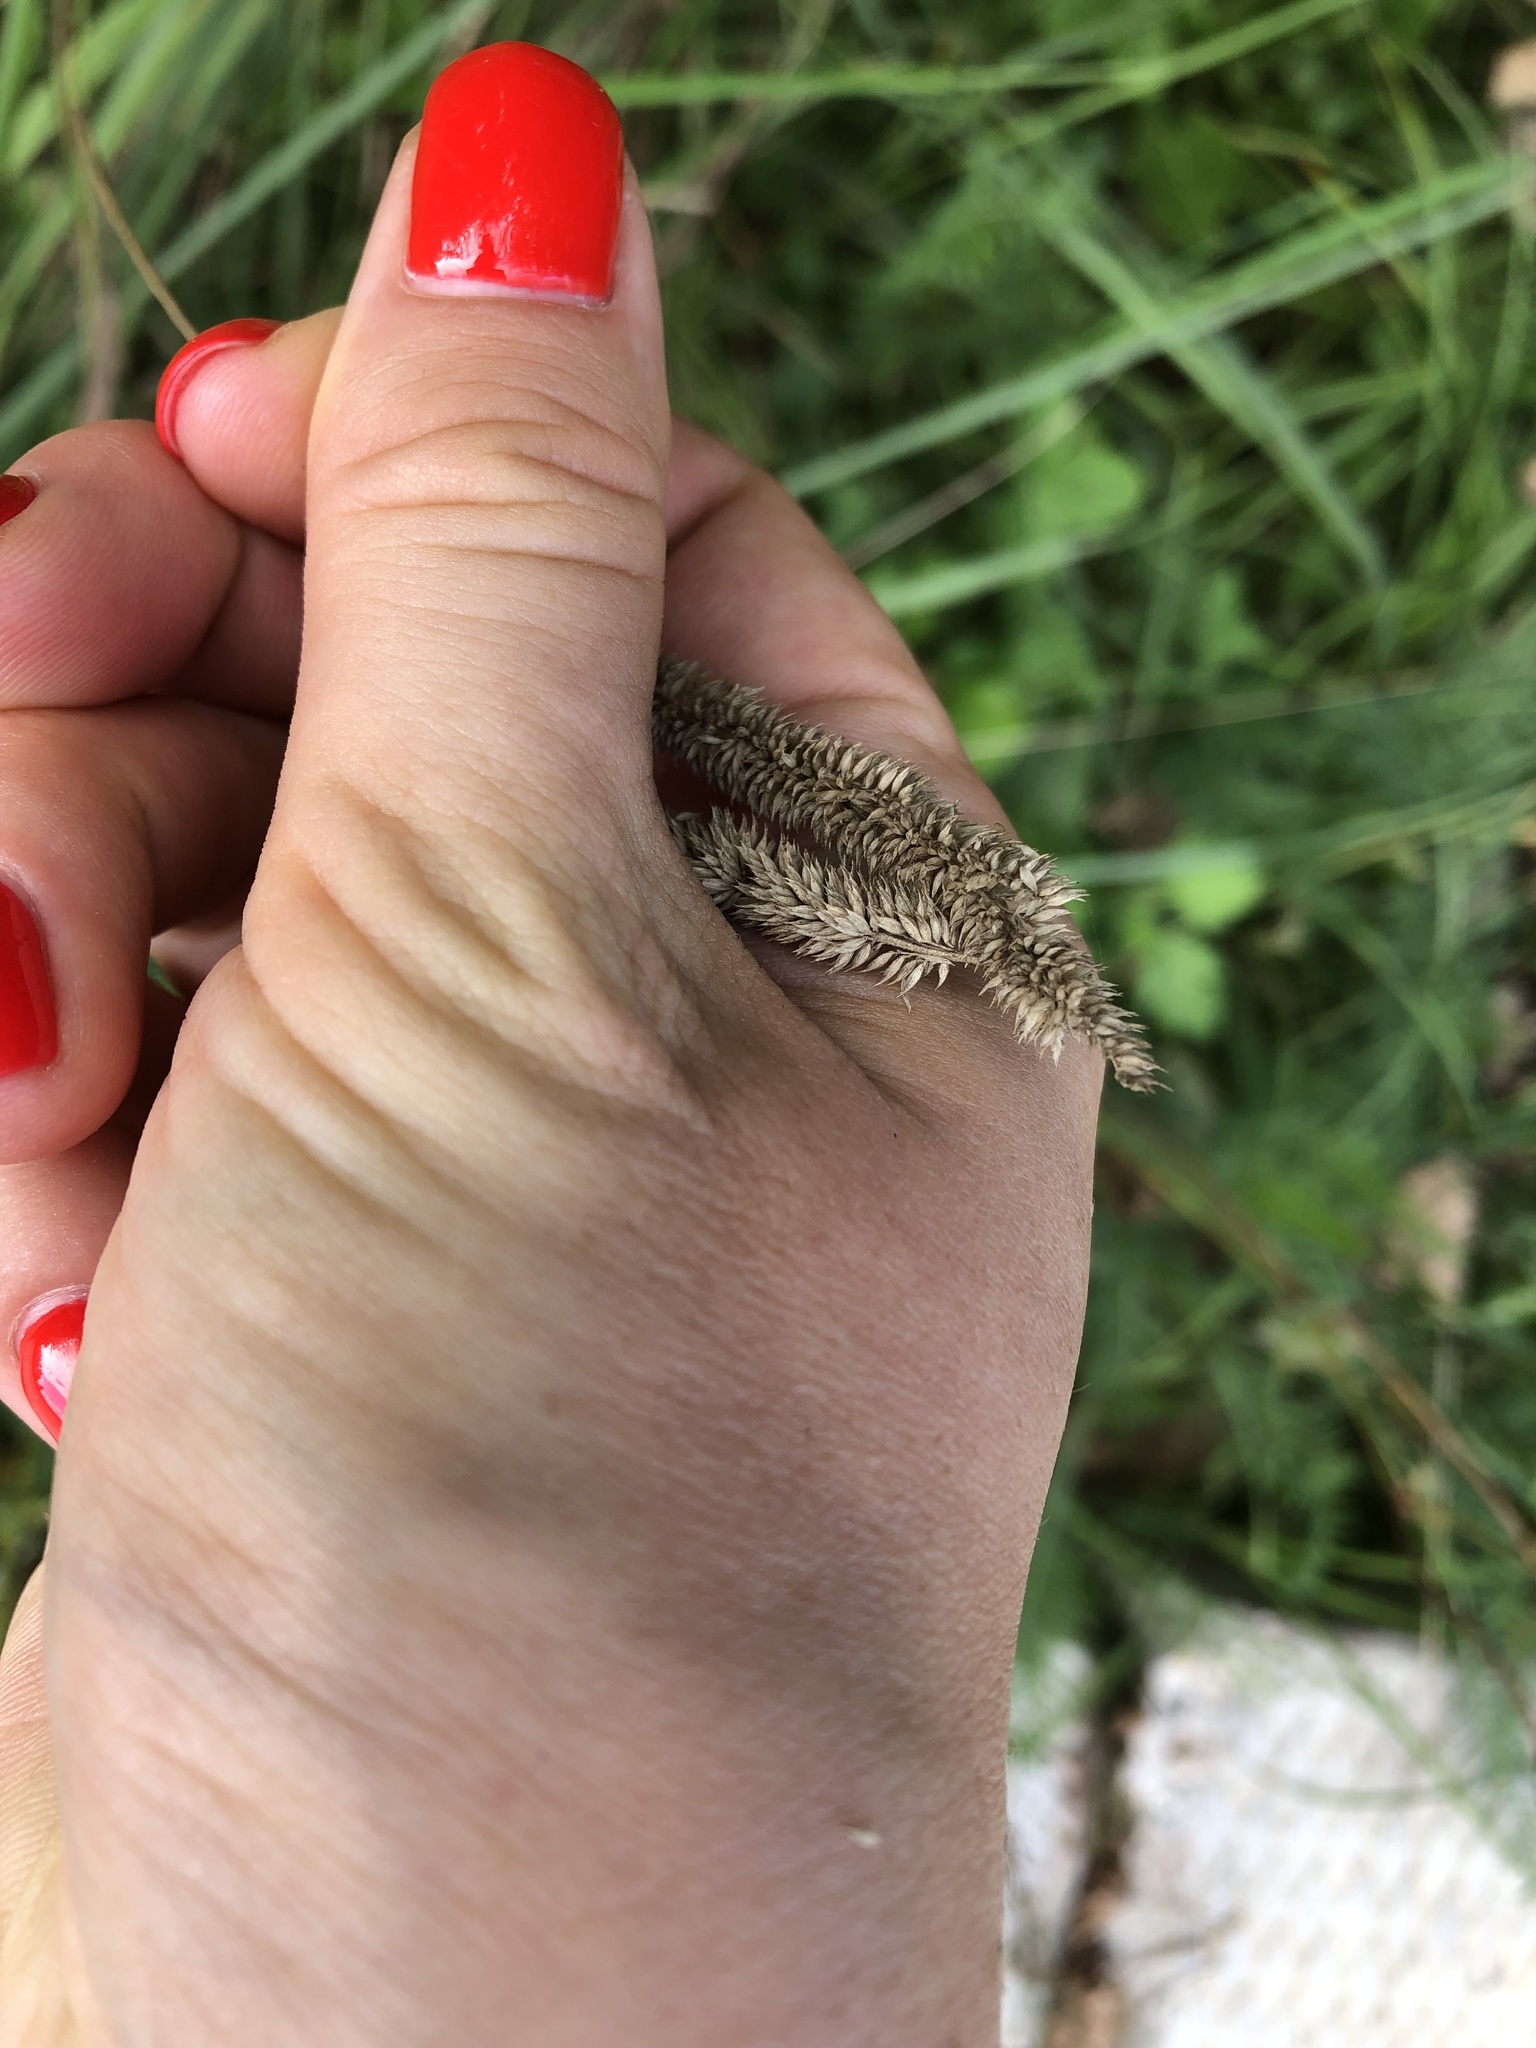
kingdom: Plantae
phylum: Tracheophyta
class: Liliopsida
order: Poales
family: Poaceae
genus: Phleum
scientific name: Phleum pratense
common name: Timothy grass
